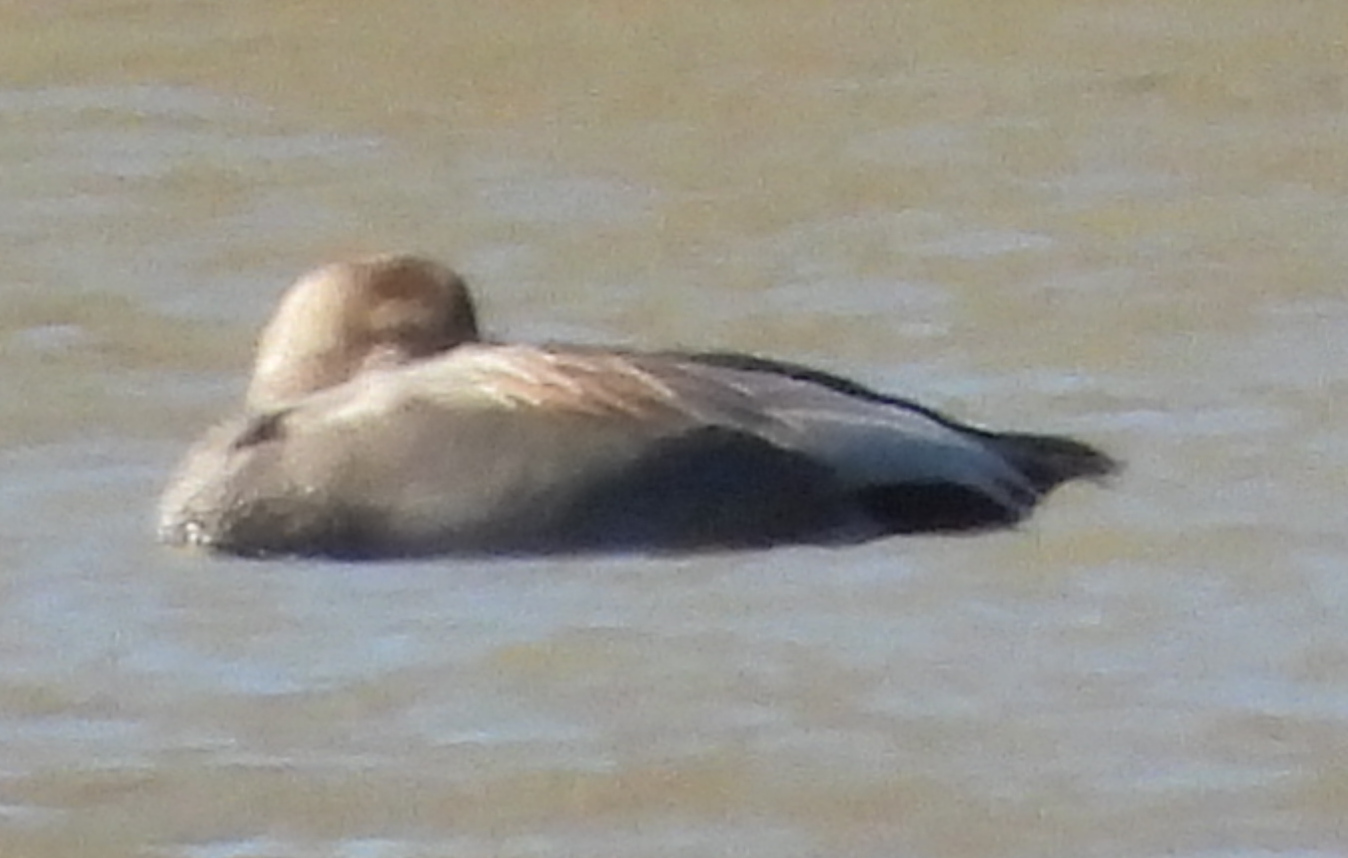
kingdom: Animalia
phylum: Chordata
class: Aves
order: Anseriformes
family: Anatidae
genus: Mareca
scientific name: Mareca strepera
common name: Gadwall
